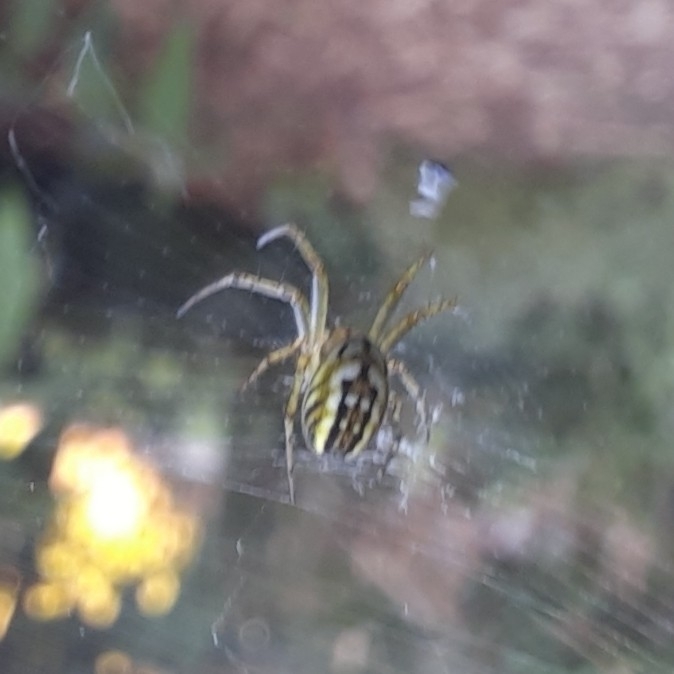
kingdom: Animalia
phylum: Arthropoda
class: Arachnida
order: Araneae
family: Araneidae
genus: Mangora
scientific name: Mangora acalypha
